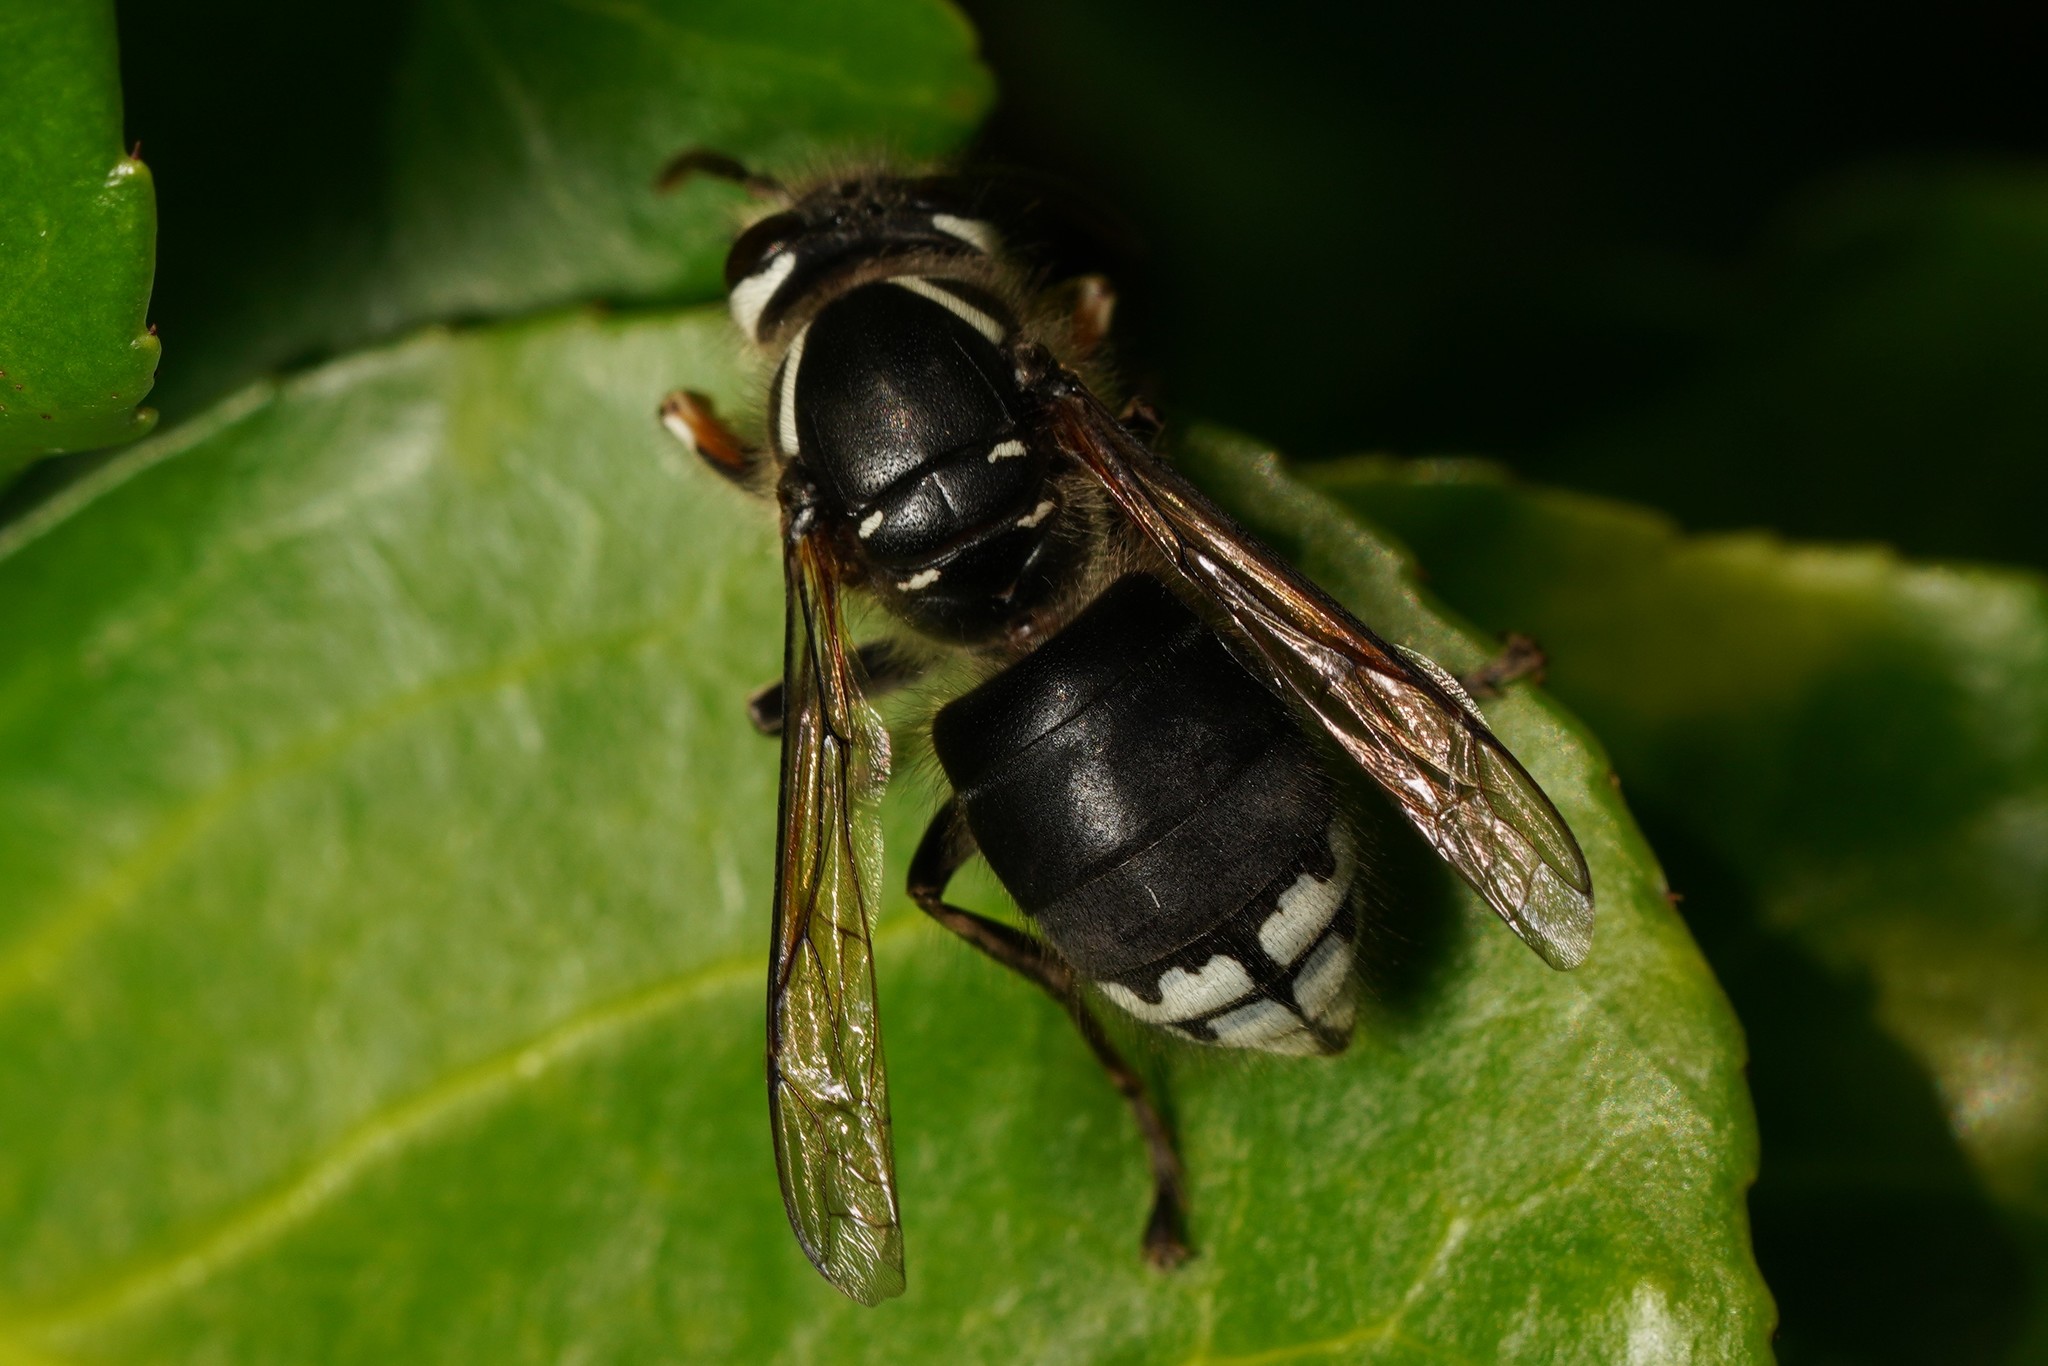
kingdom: Animalia
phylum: Arthropoda
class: Insecta
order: Hymenoptera
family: Vespidae
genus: Dolichovespula
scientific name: Dolichovespula maculata
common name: Bald-faced hornet
